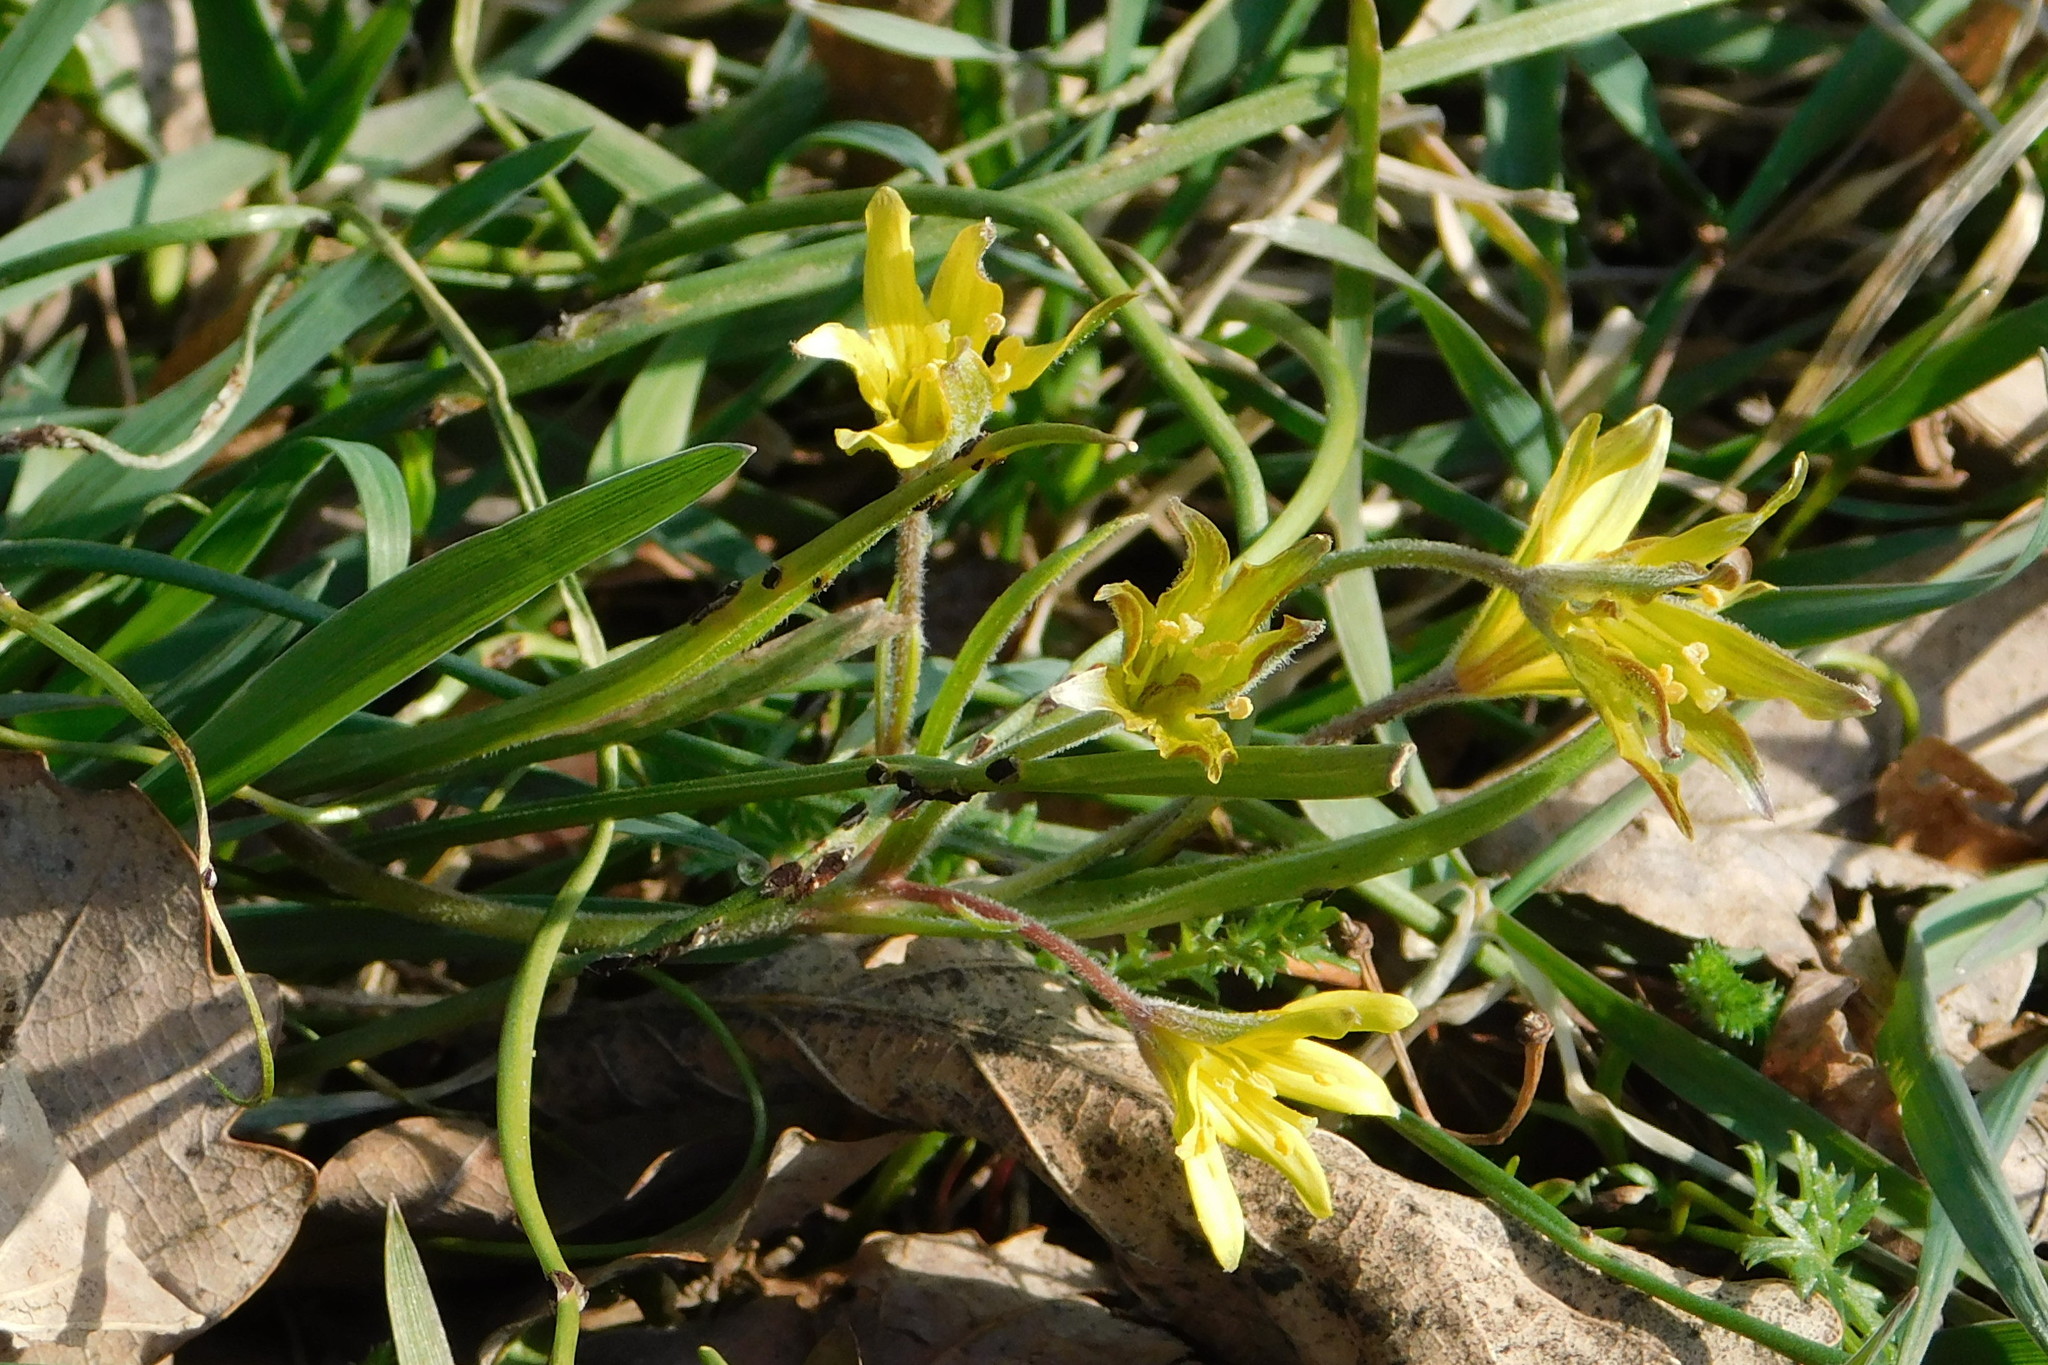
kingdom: Plantae
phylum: Tracheophyta
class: Liliopsida
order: Liliales
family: Liliaceae
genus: Gagea
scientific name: Gagea villosa
